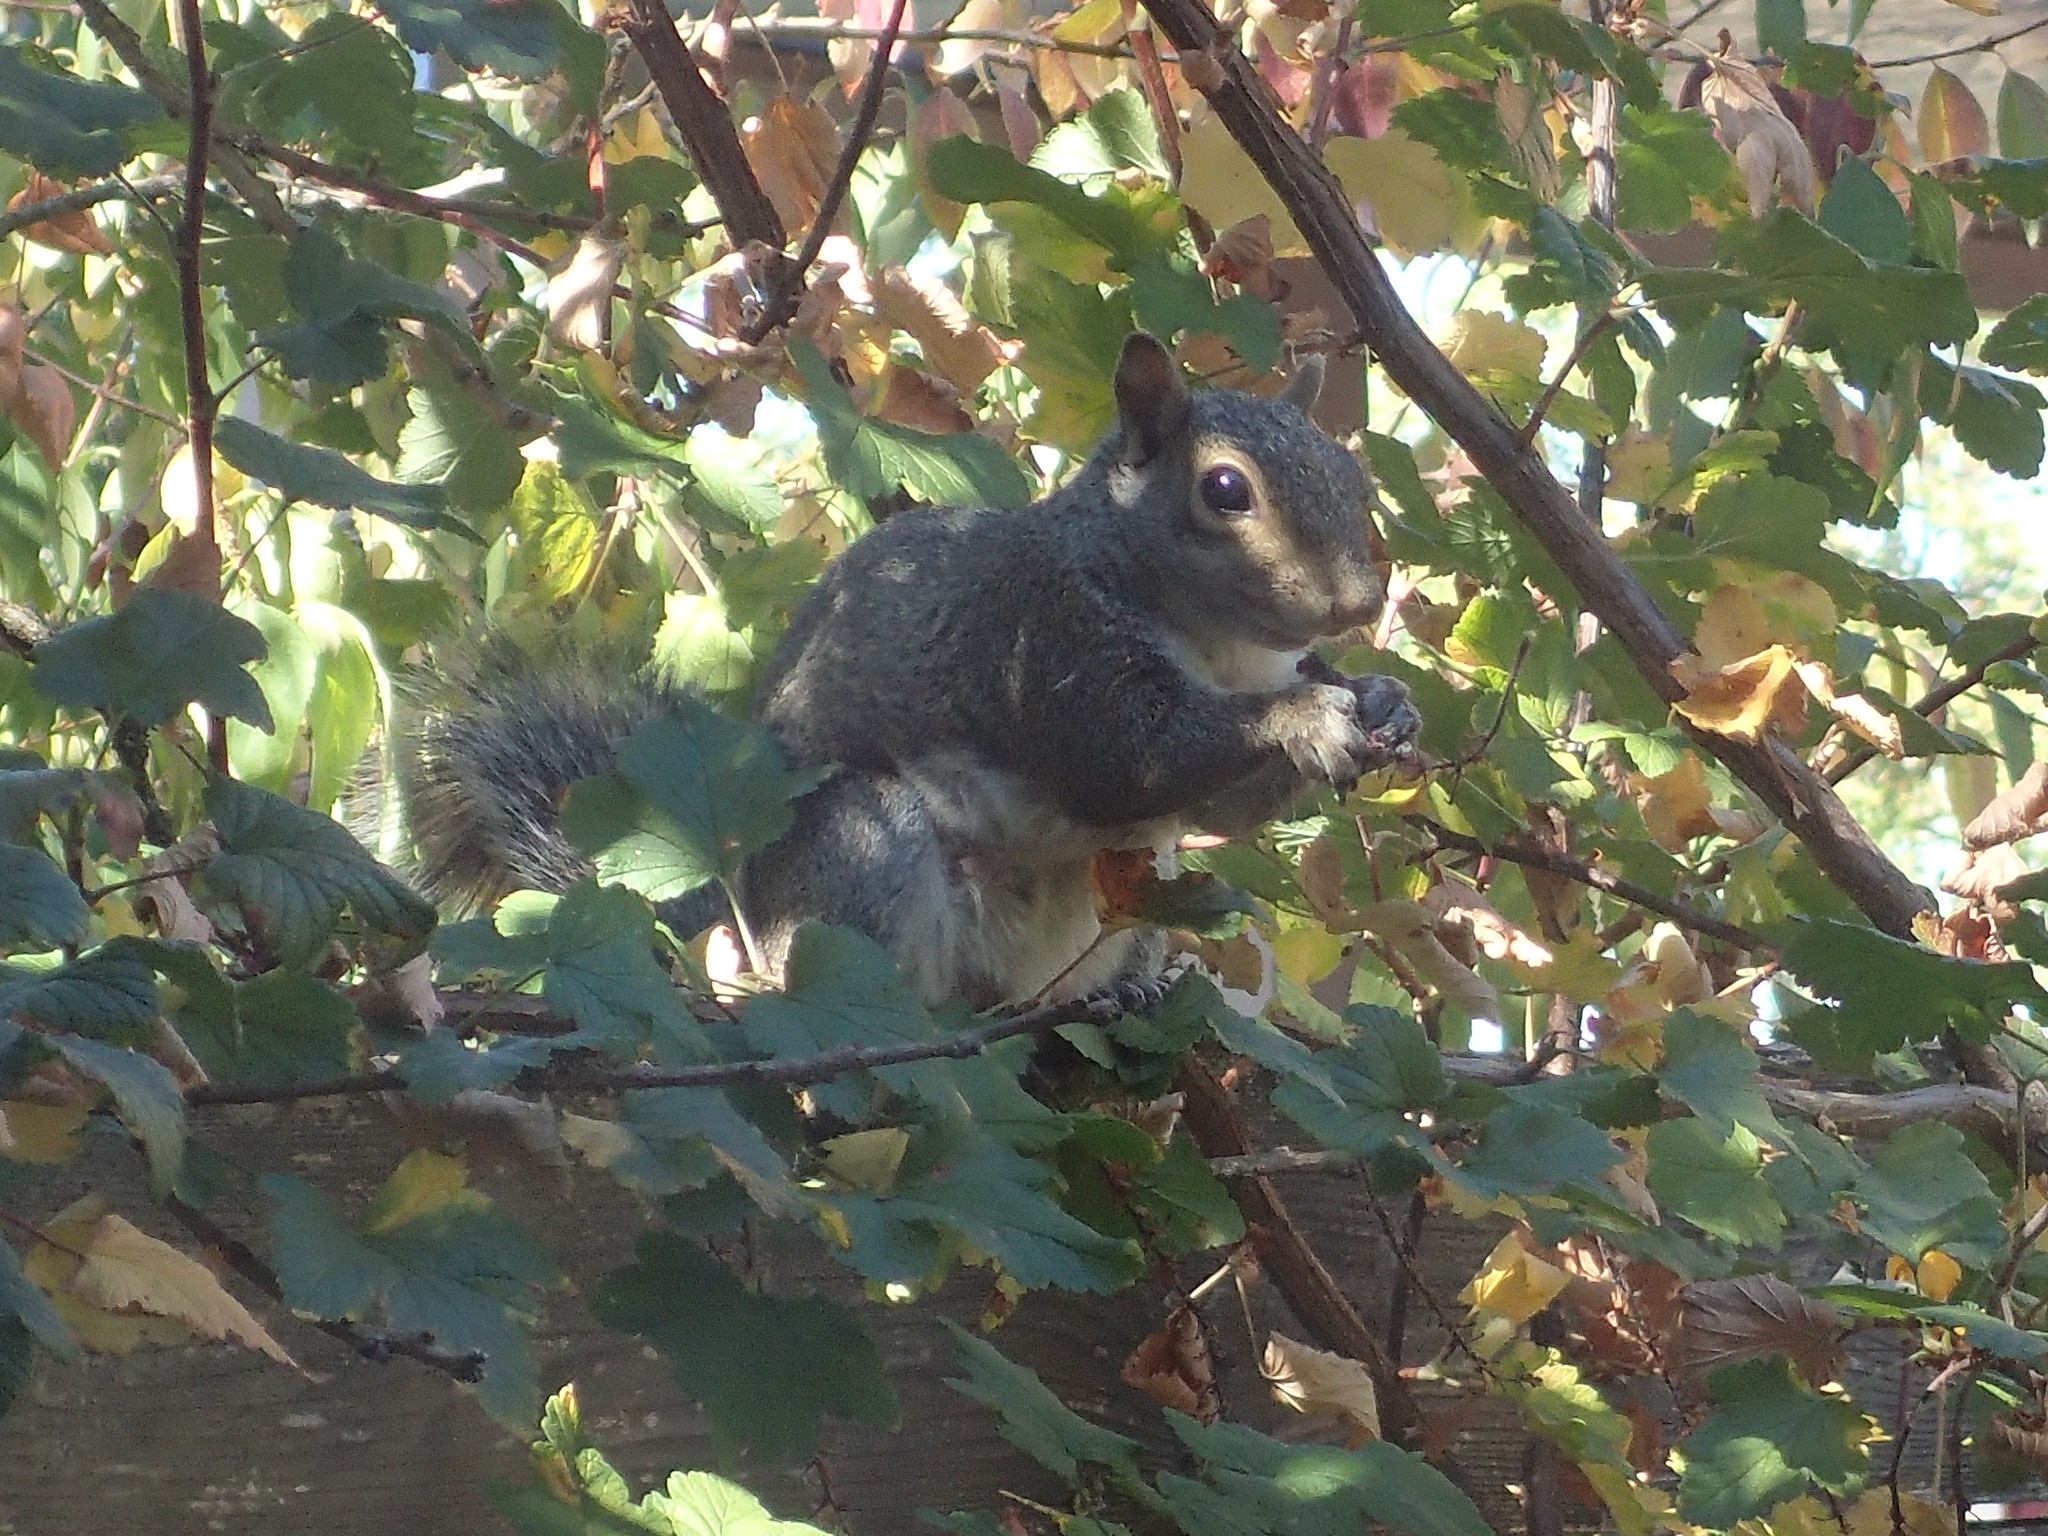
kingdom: Animalia
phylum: Chordata
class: Mammalia
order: Rodentia
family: Sciuridae
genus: Sciurus
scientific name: Sciurus carolinensis
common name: Eastern gray squirrel
